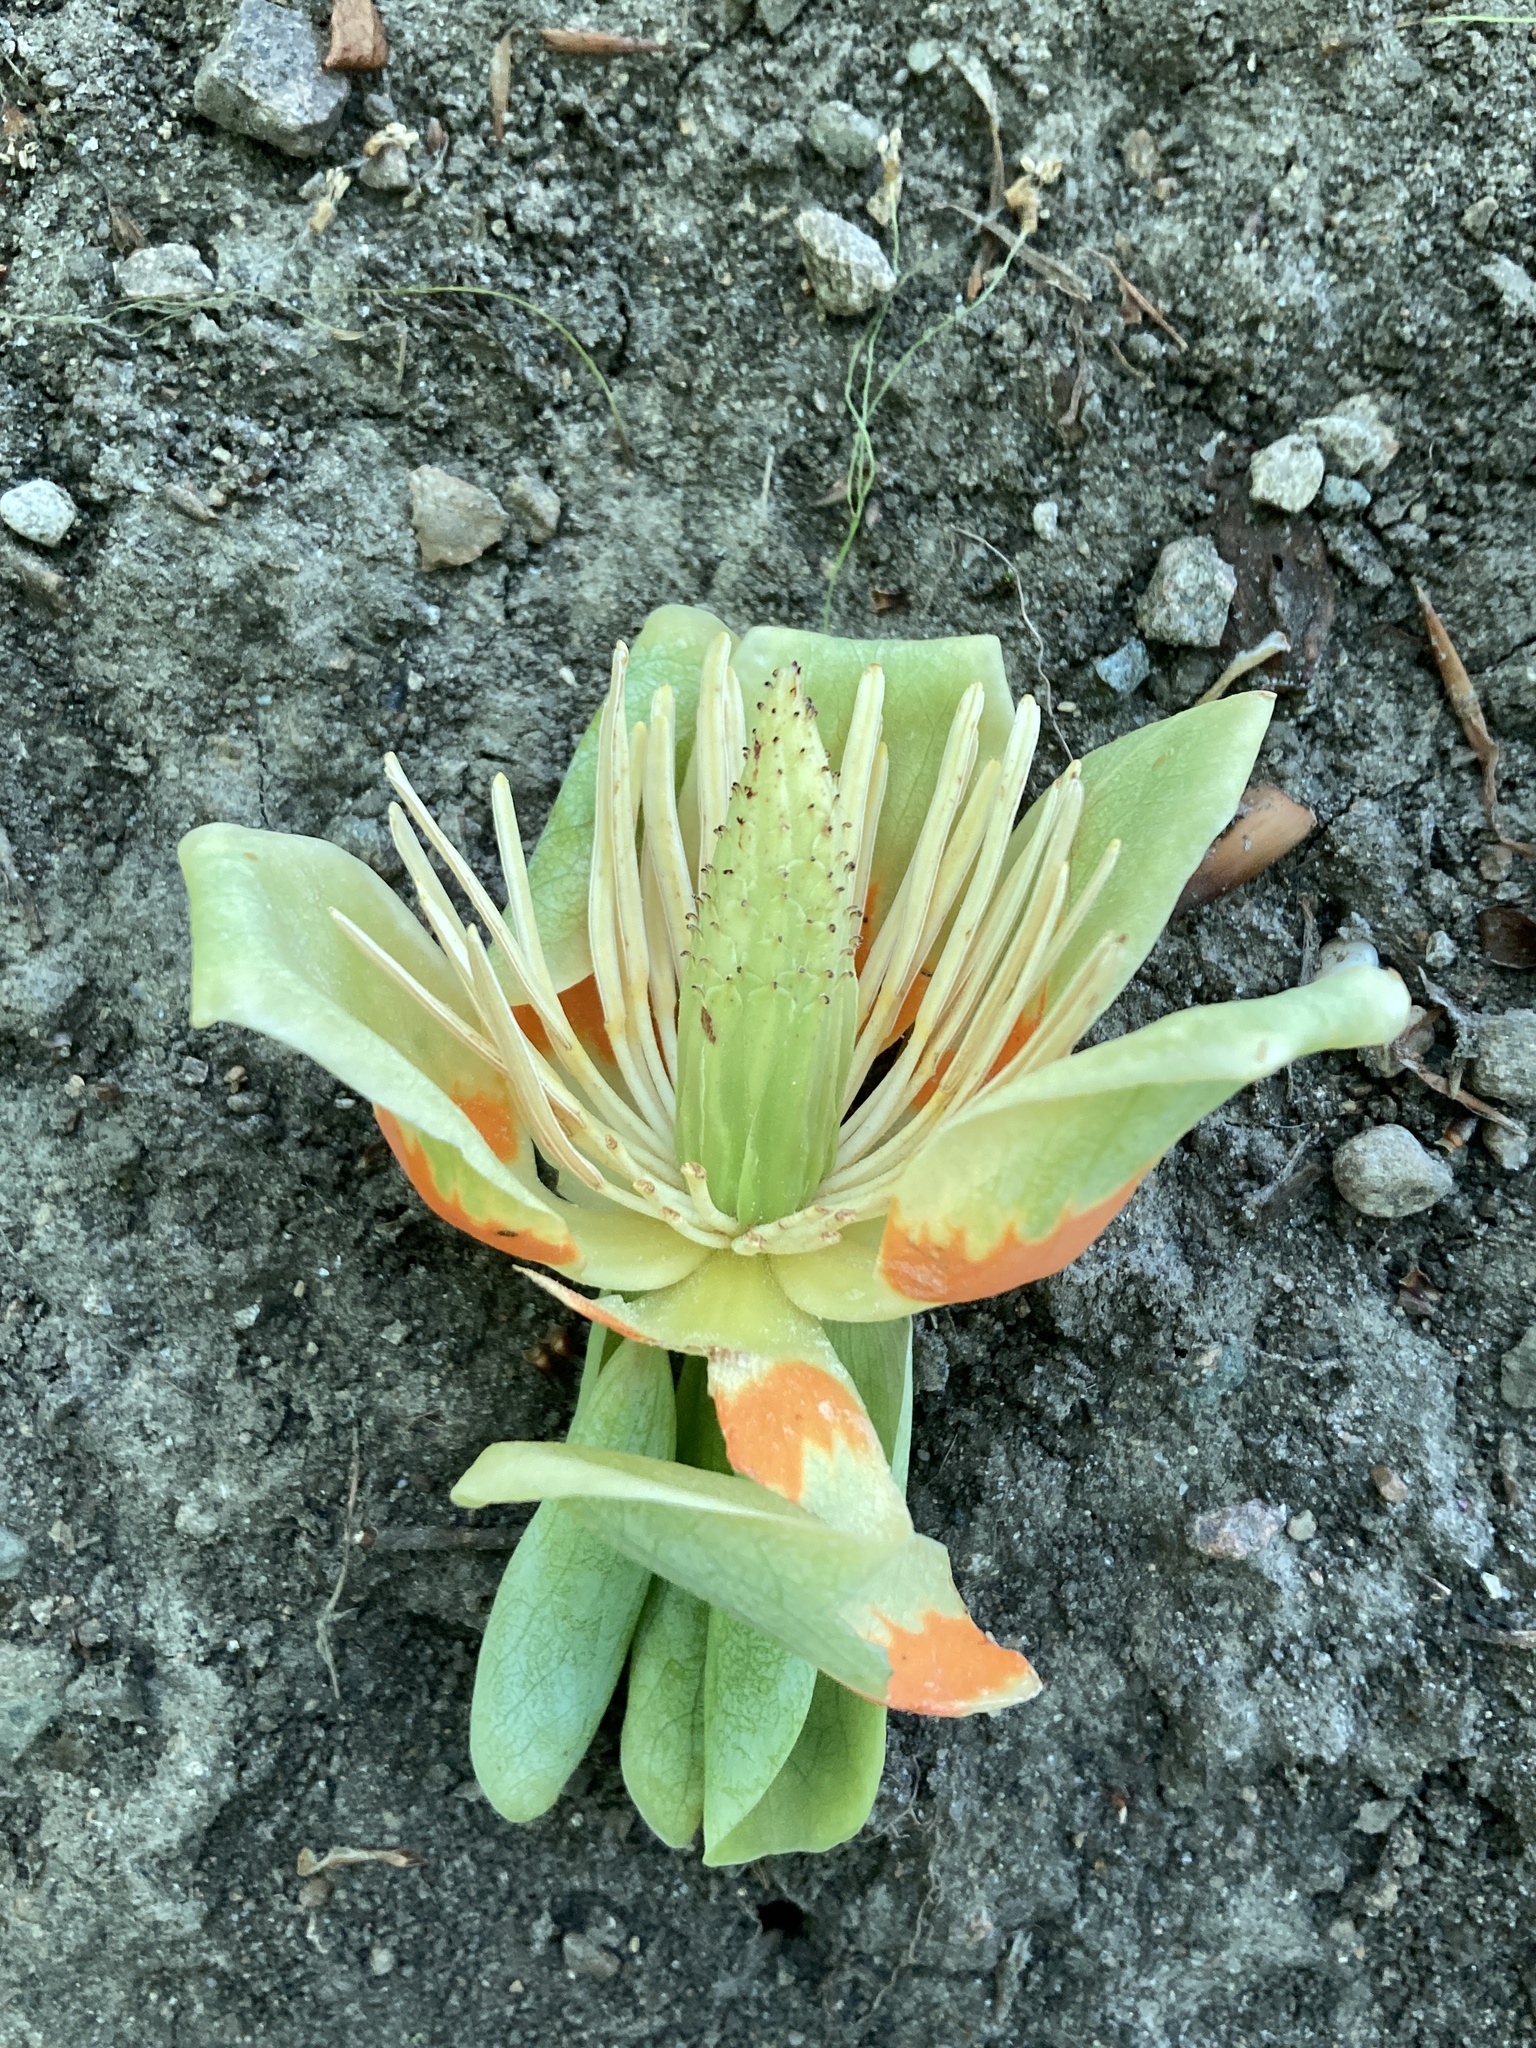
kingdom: Plantae
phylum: Tracheophyta
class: Magnoliopsida
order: Magnoliales
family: Magnoliaceae
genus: Liriodendron
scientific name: Liriodendron tulipifera
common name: Tulip tree
